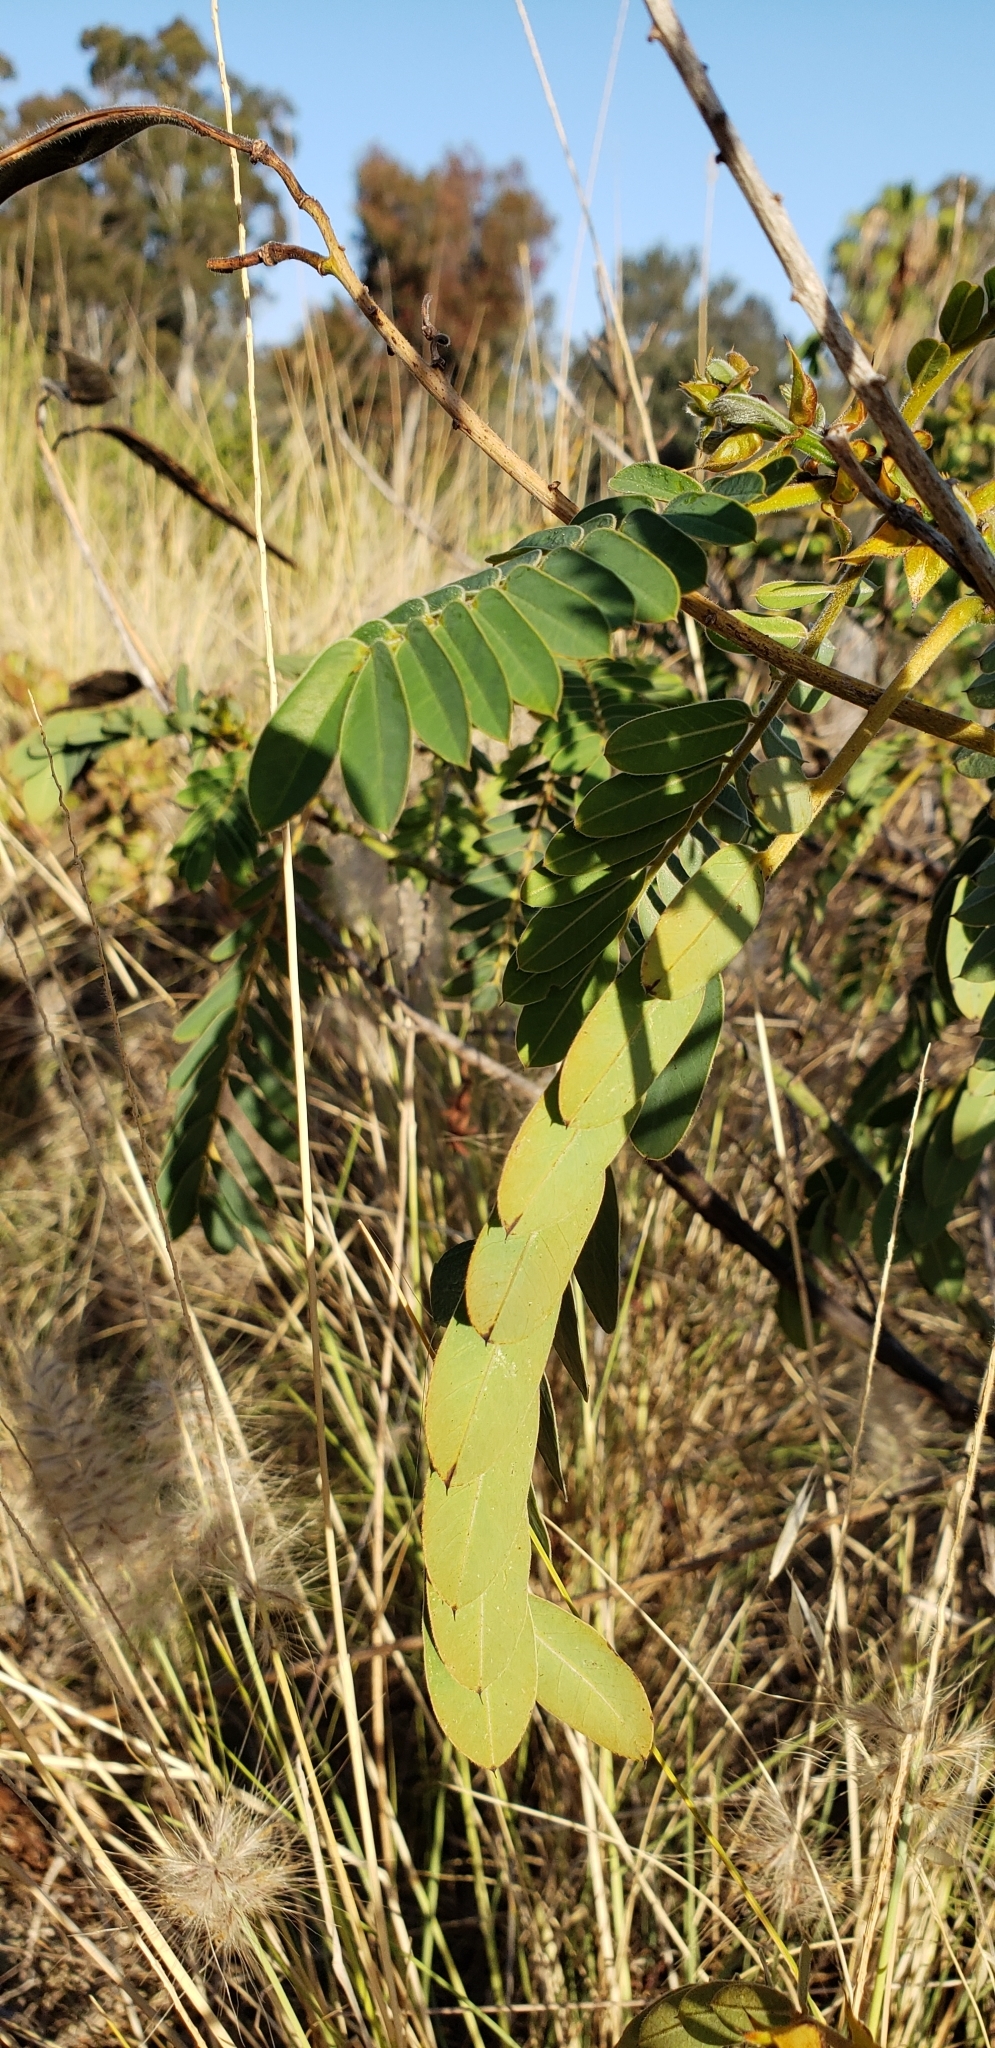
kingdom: Plantae
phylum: Tracheophyta
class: Magnoliopsida
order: Fabales
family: Fabaceae
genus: Senna
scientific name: Senna didymobotrya
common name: African senna
